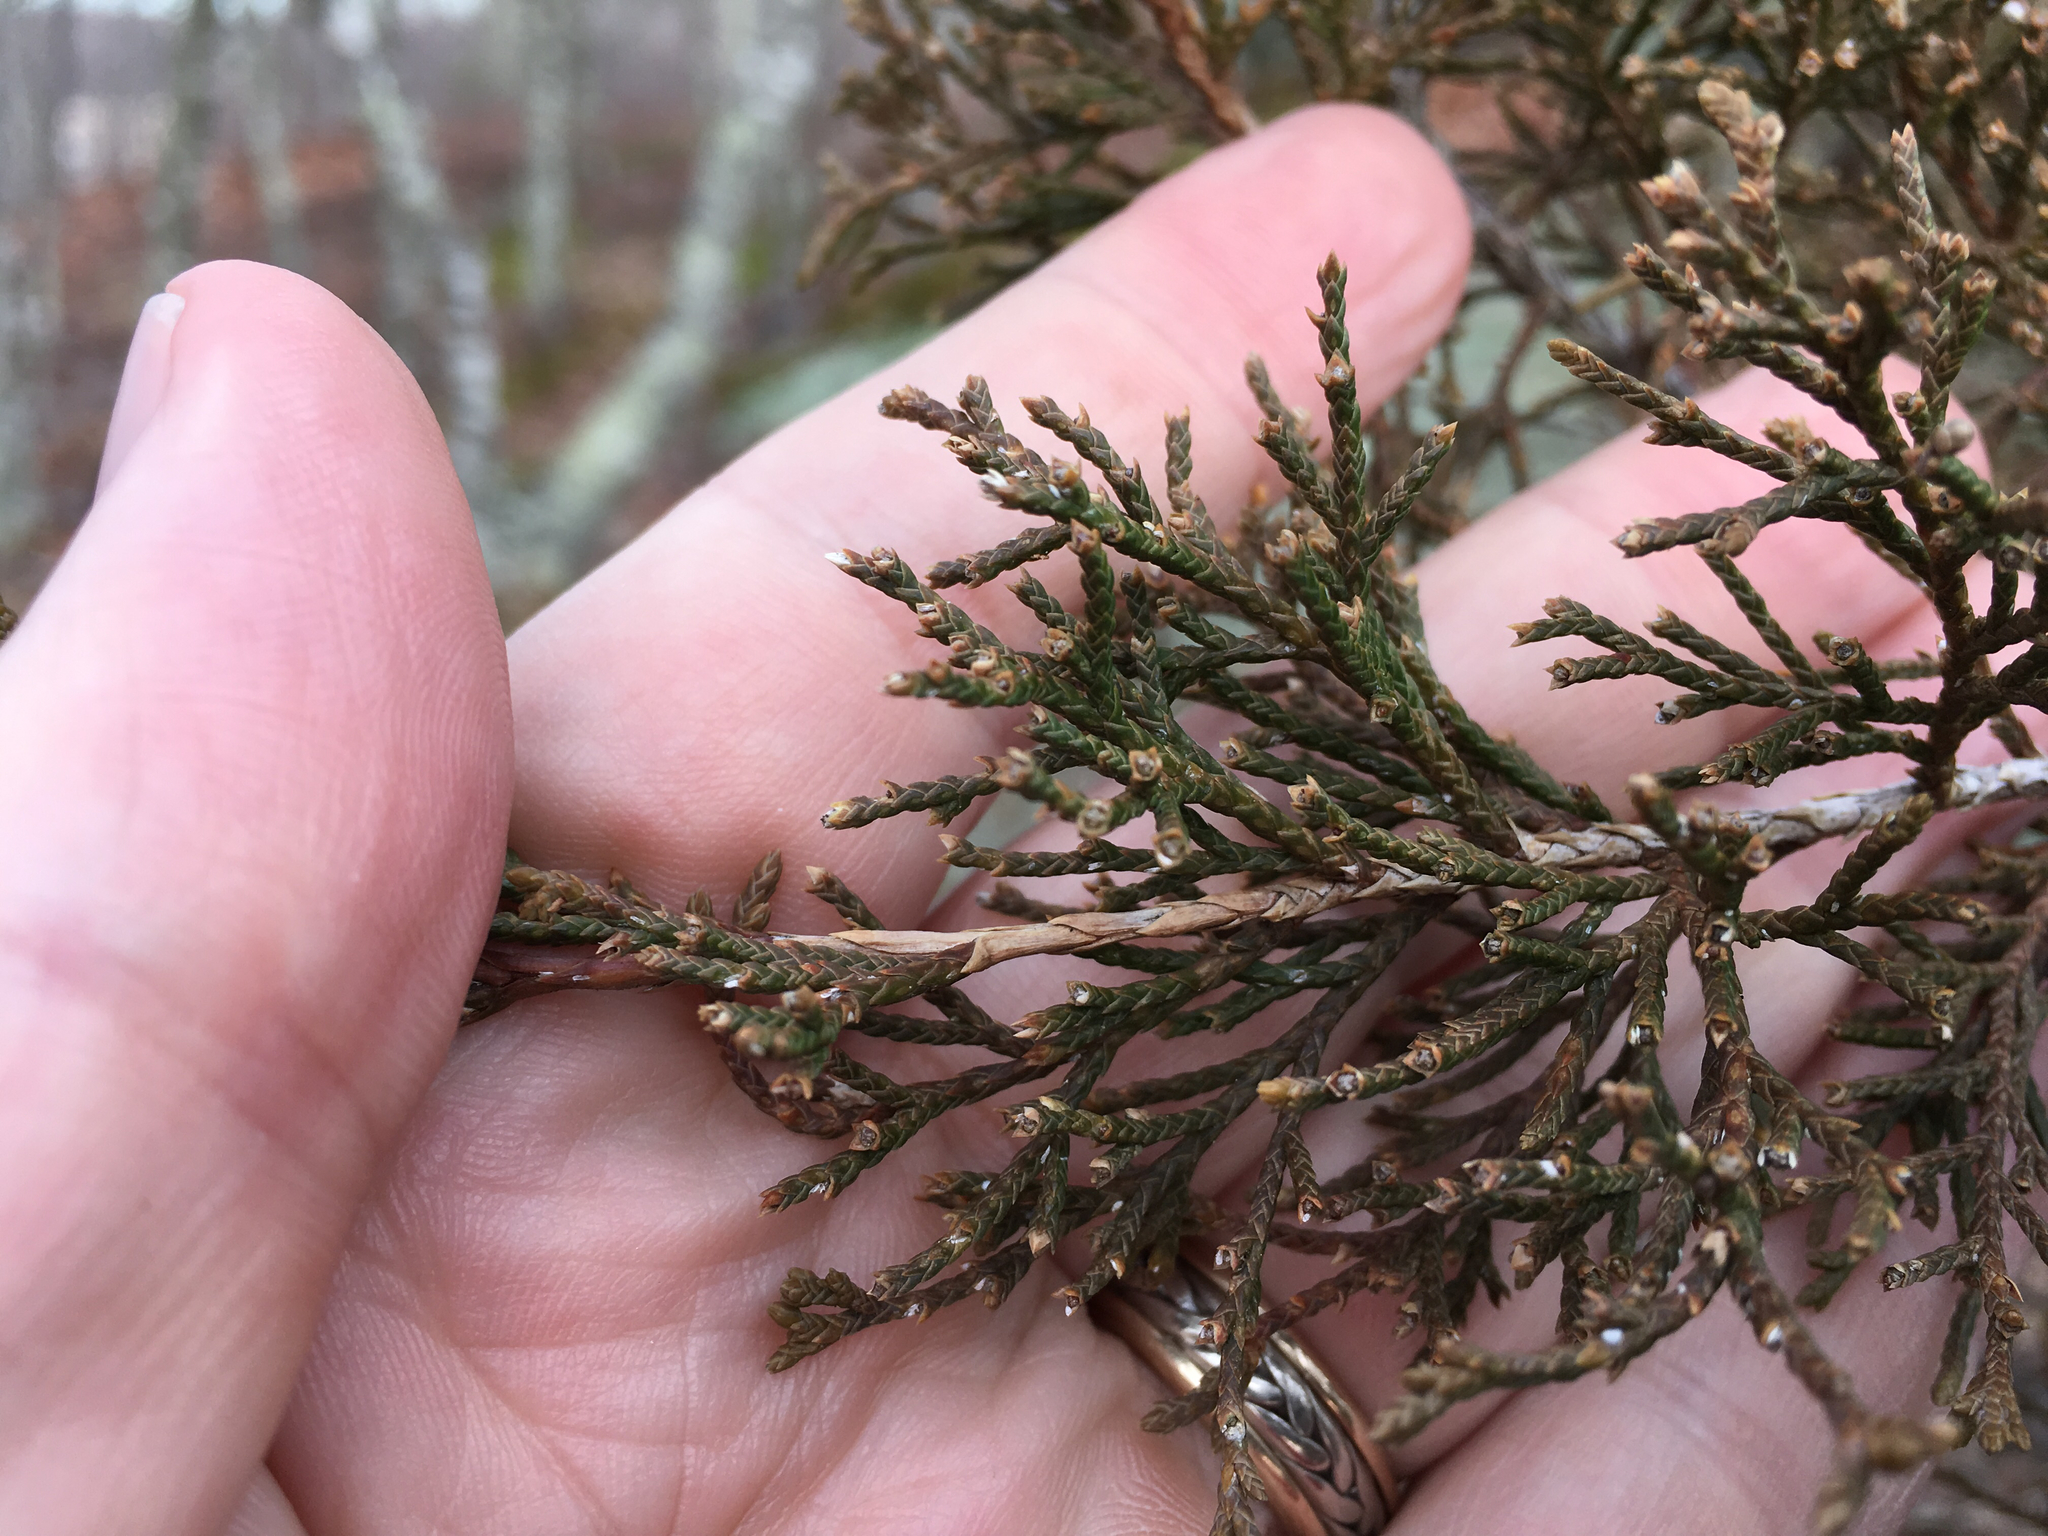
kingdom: Plantae
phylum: Tracheophyta
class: Pinopsida
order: Pinales
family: Cupressaceae
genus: Juniperus
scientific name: Juniperus virginiana
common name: Red juniper
